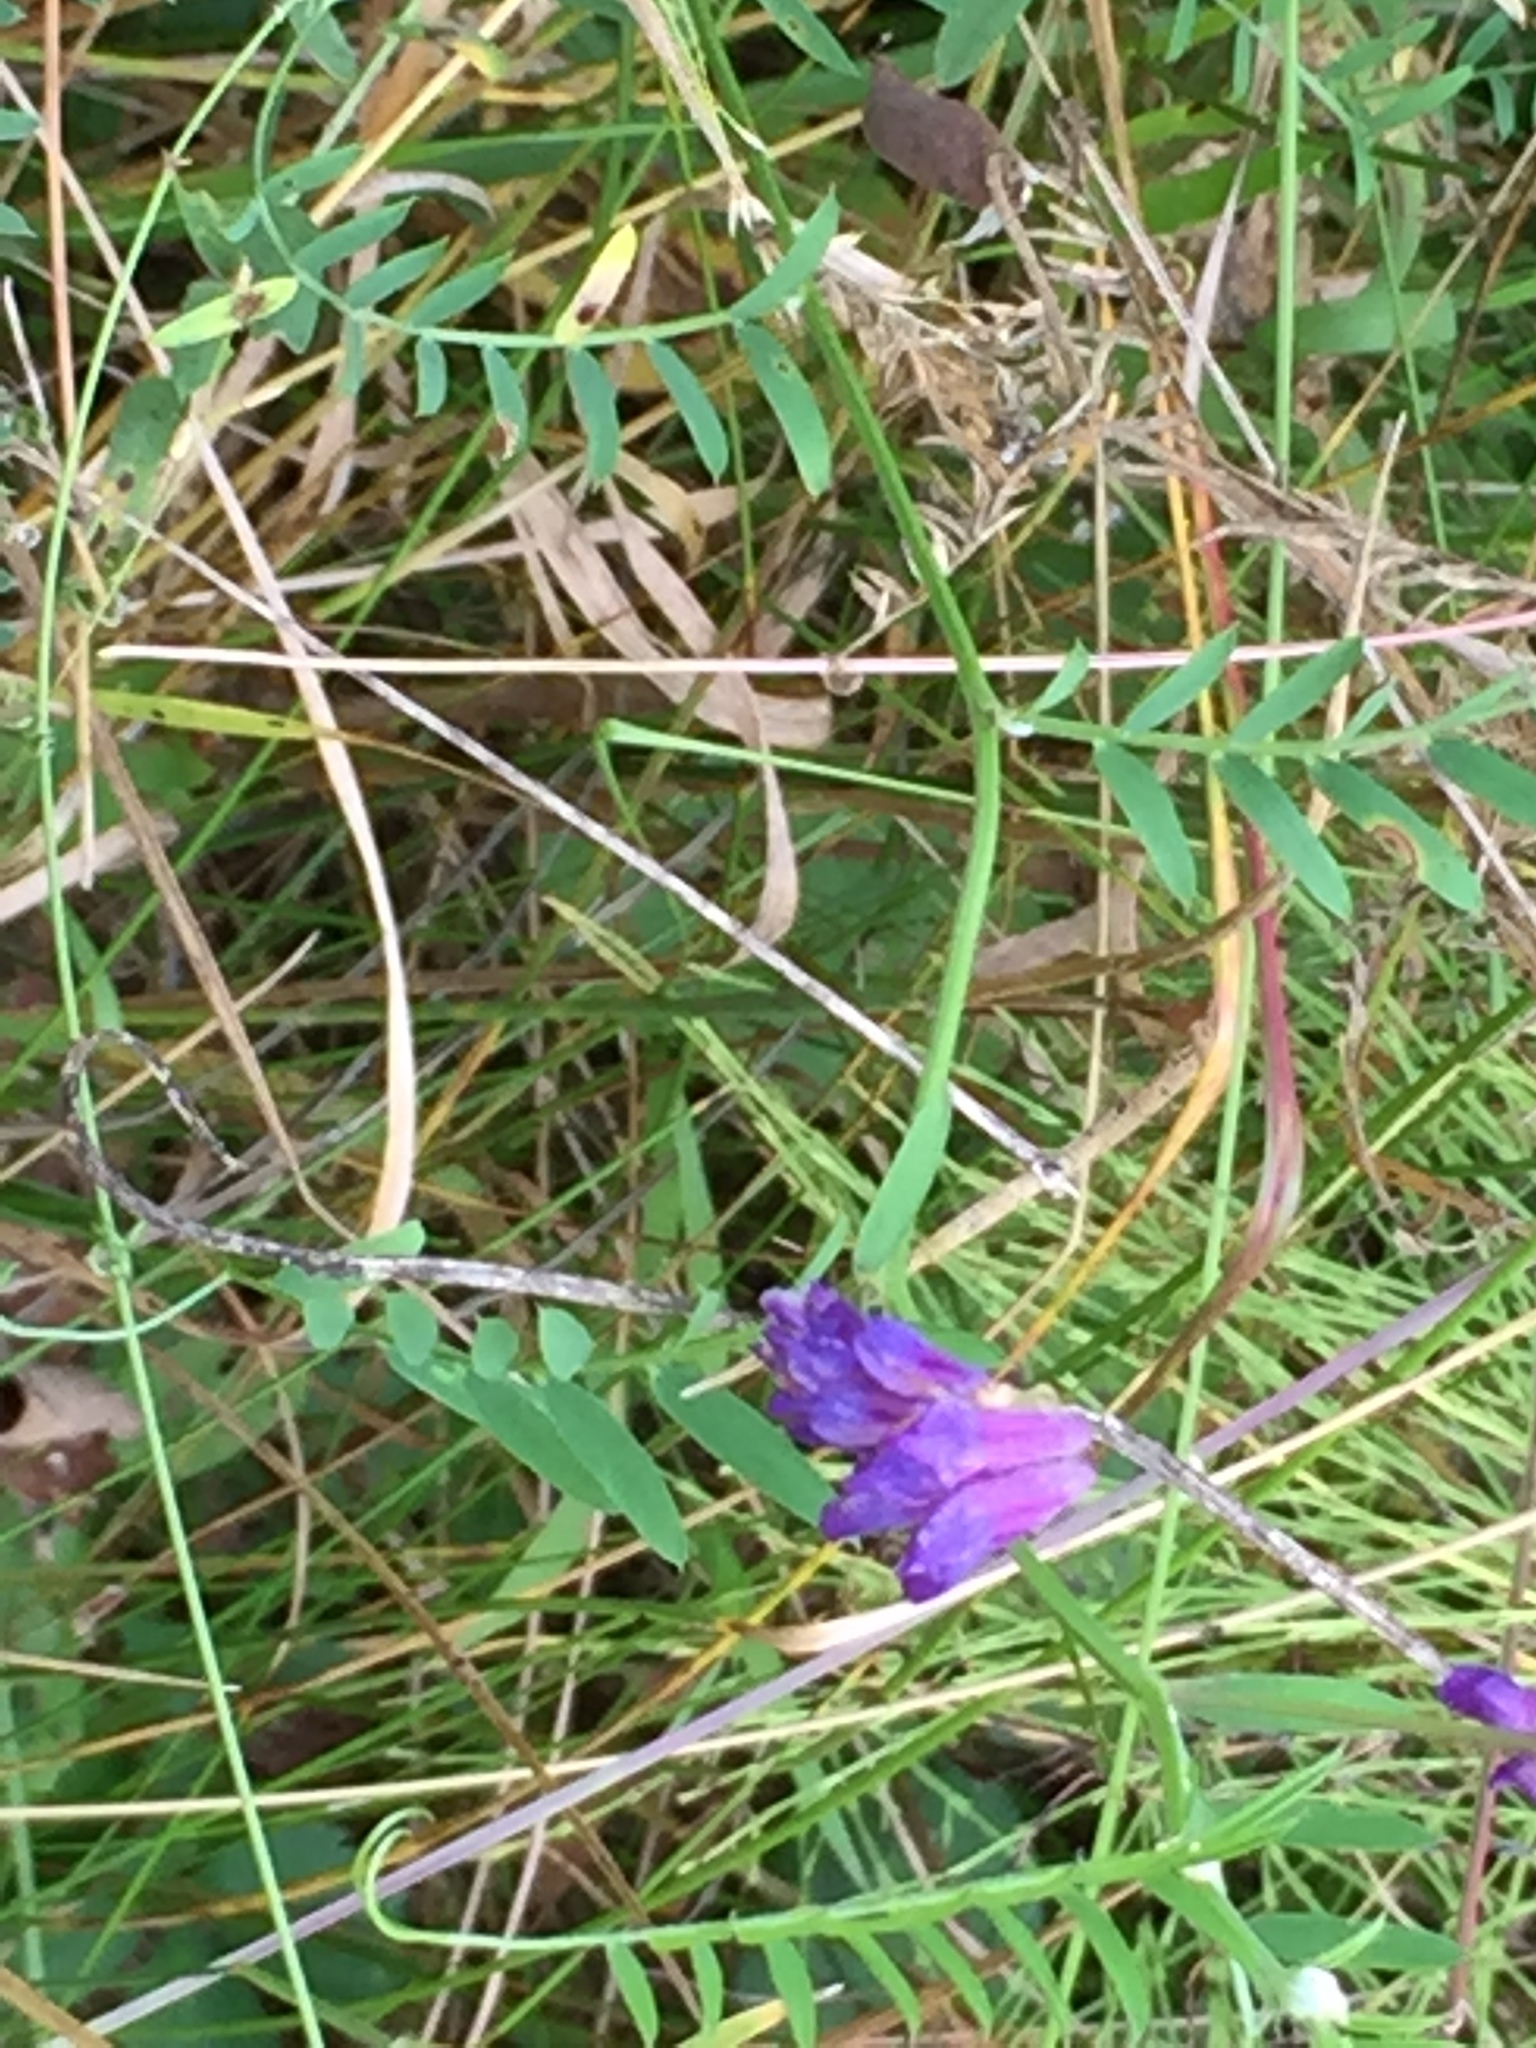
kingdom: Plantae
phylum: Tracheophyta
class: Magnoliopsida
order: Fabales
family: Fabaceae
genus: Vicia
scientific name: Vicia cracca
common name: Bird vetch
